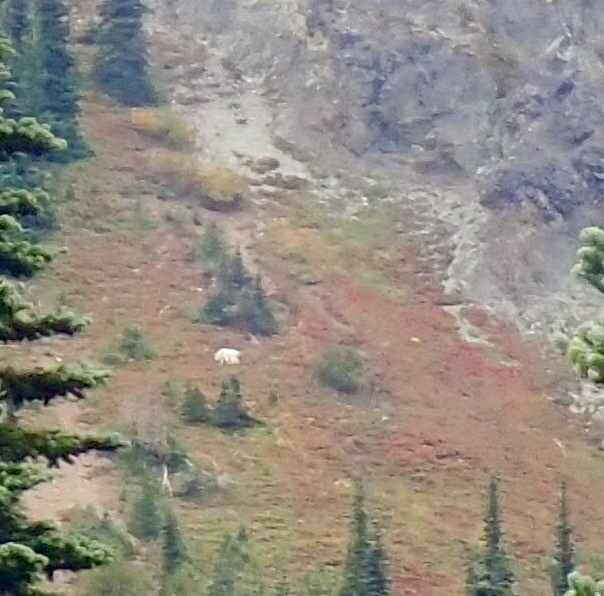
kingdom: Animalia
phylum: Chordata
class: Mammalia
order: Artiodactyla
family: Bovidae
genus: Oreamnos
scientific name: Oreamnos americanus
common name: Mountain goat
